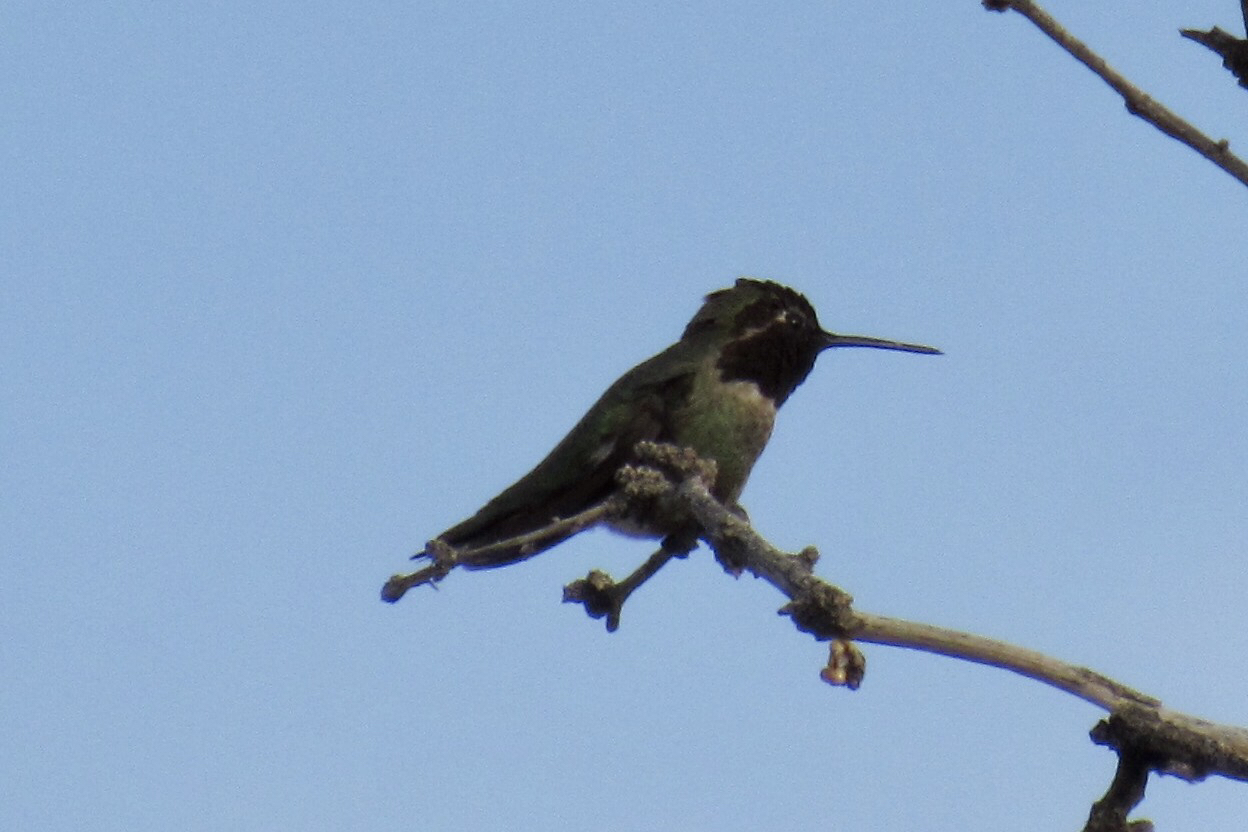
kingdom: Animalia
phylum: Chordata
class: Aves
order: Apodiformes
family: Trochilidae
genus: Calypte
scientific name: Calypte anna
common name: Anna's hummingbird
